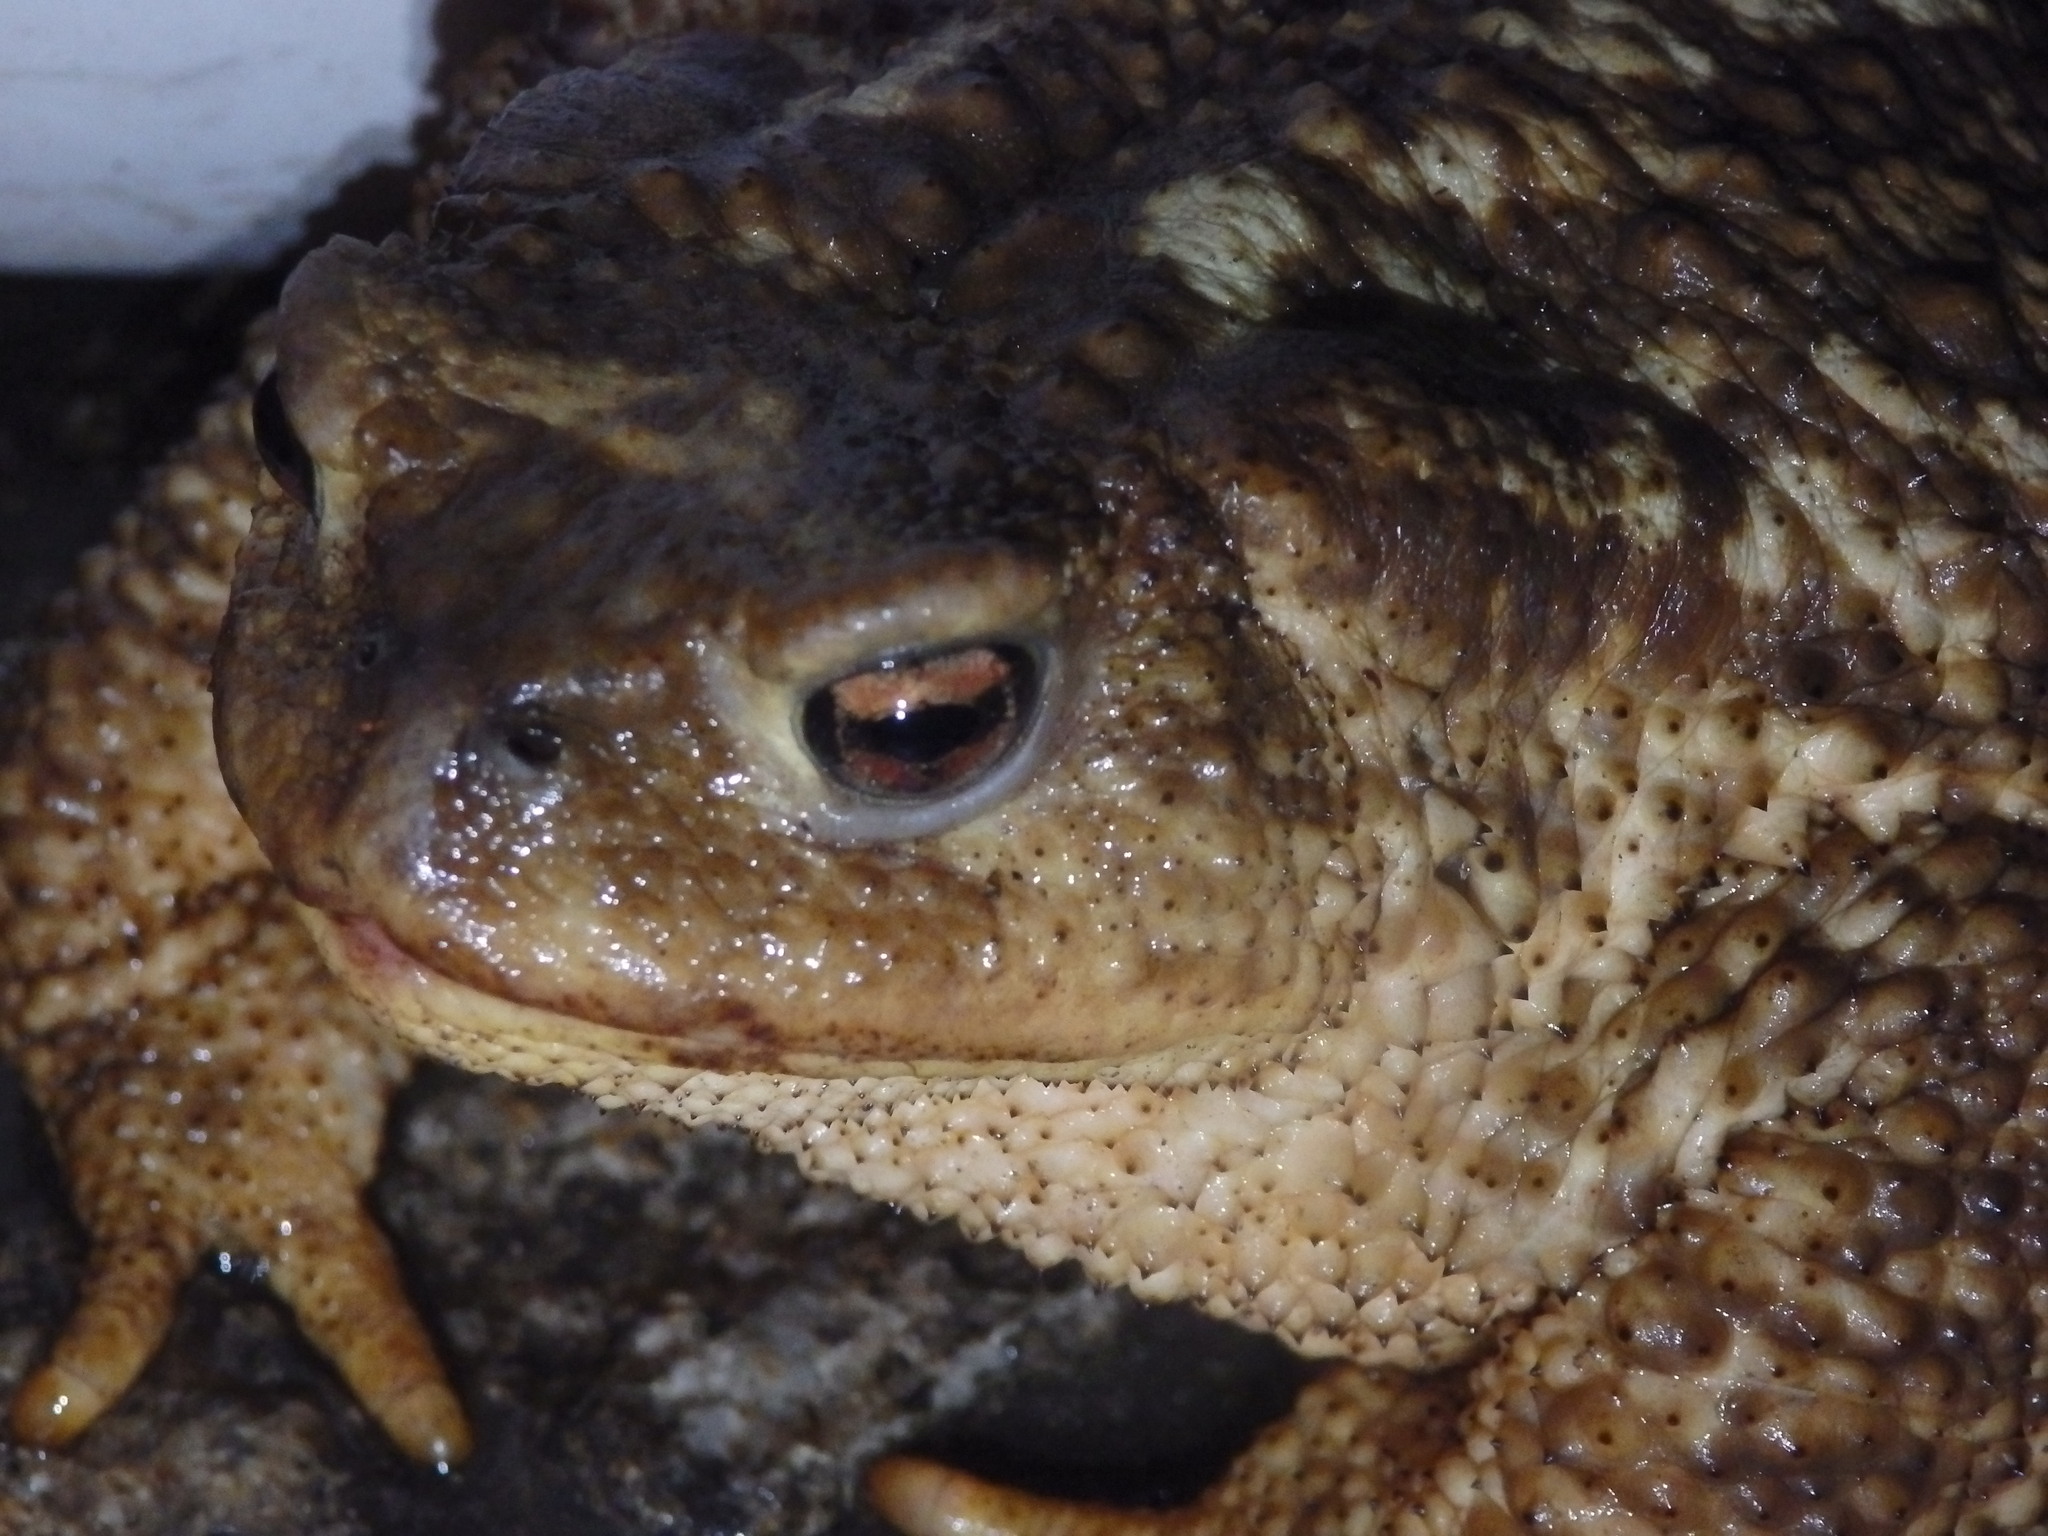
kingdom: Animalia
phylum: Chordata
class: Amphibia
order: Anura
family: Bufonidae
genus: Bufo
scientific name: Bufo spinosus
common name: Western common toad
